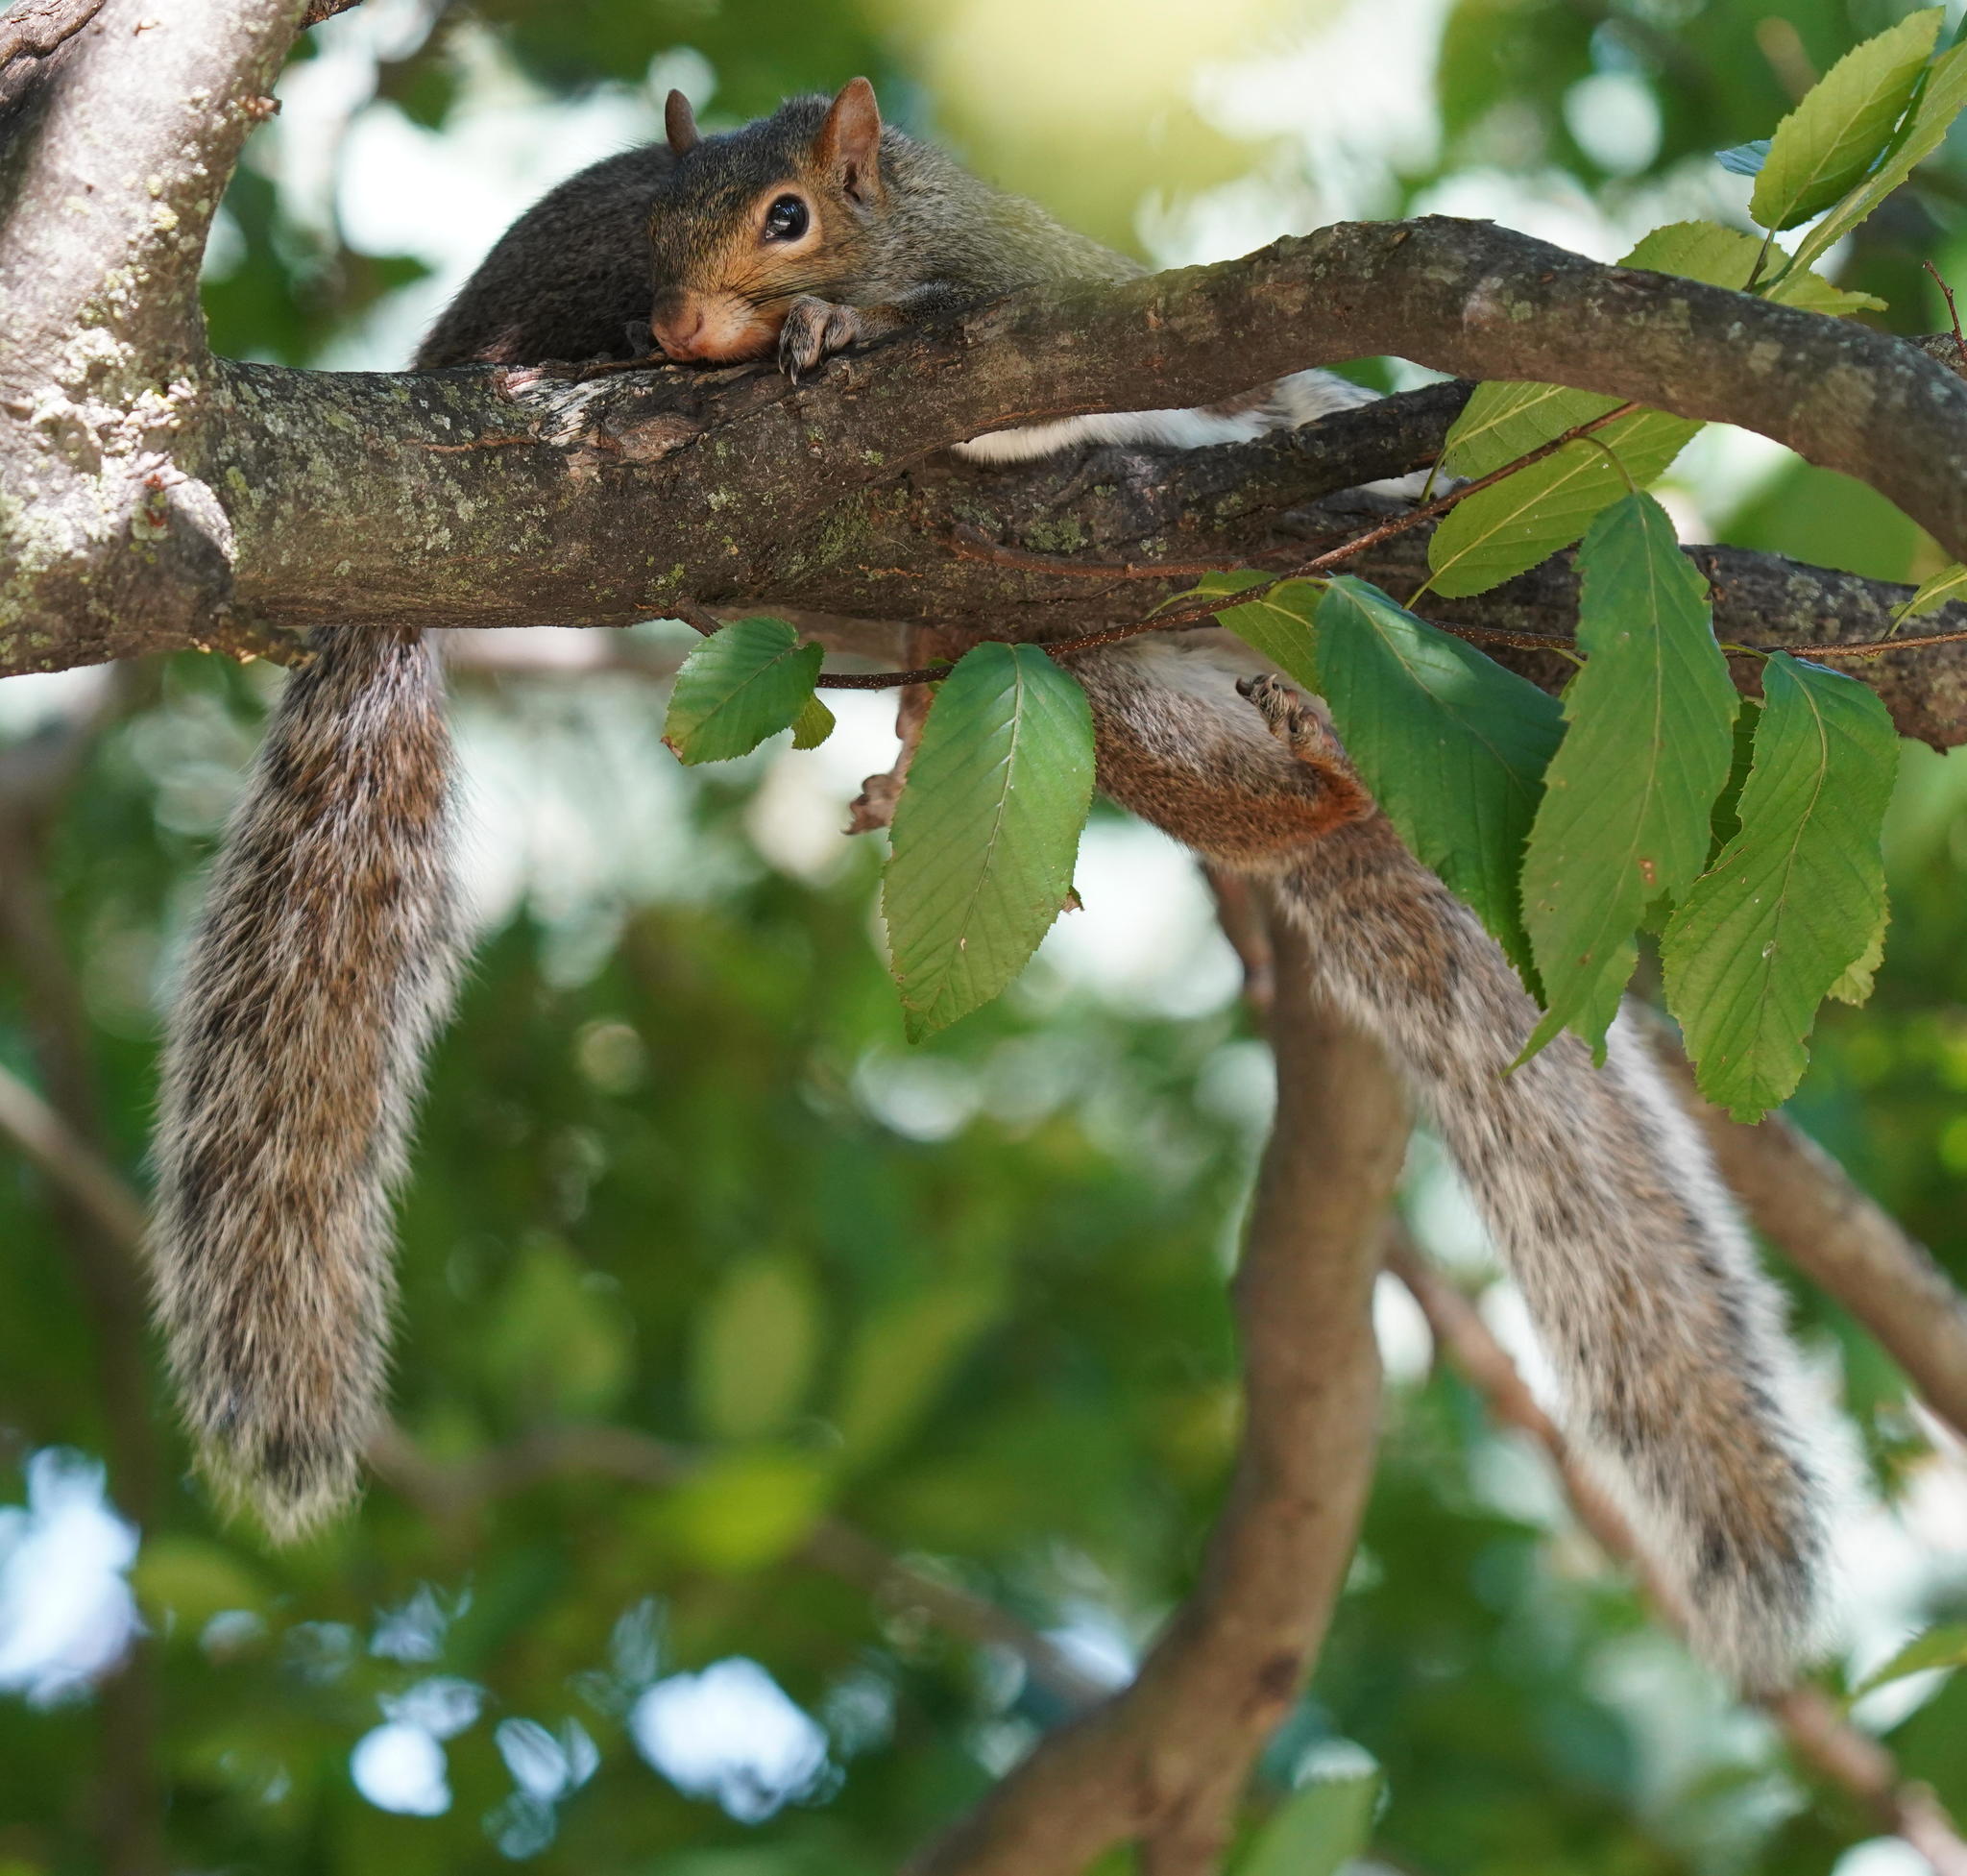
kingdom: Animalia
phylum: Chordata
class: Mammalia
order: Rodentia
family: Sciuridae
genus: Sciurus
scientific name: Sciurus carolinensis
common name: Eastern gray squirrel
